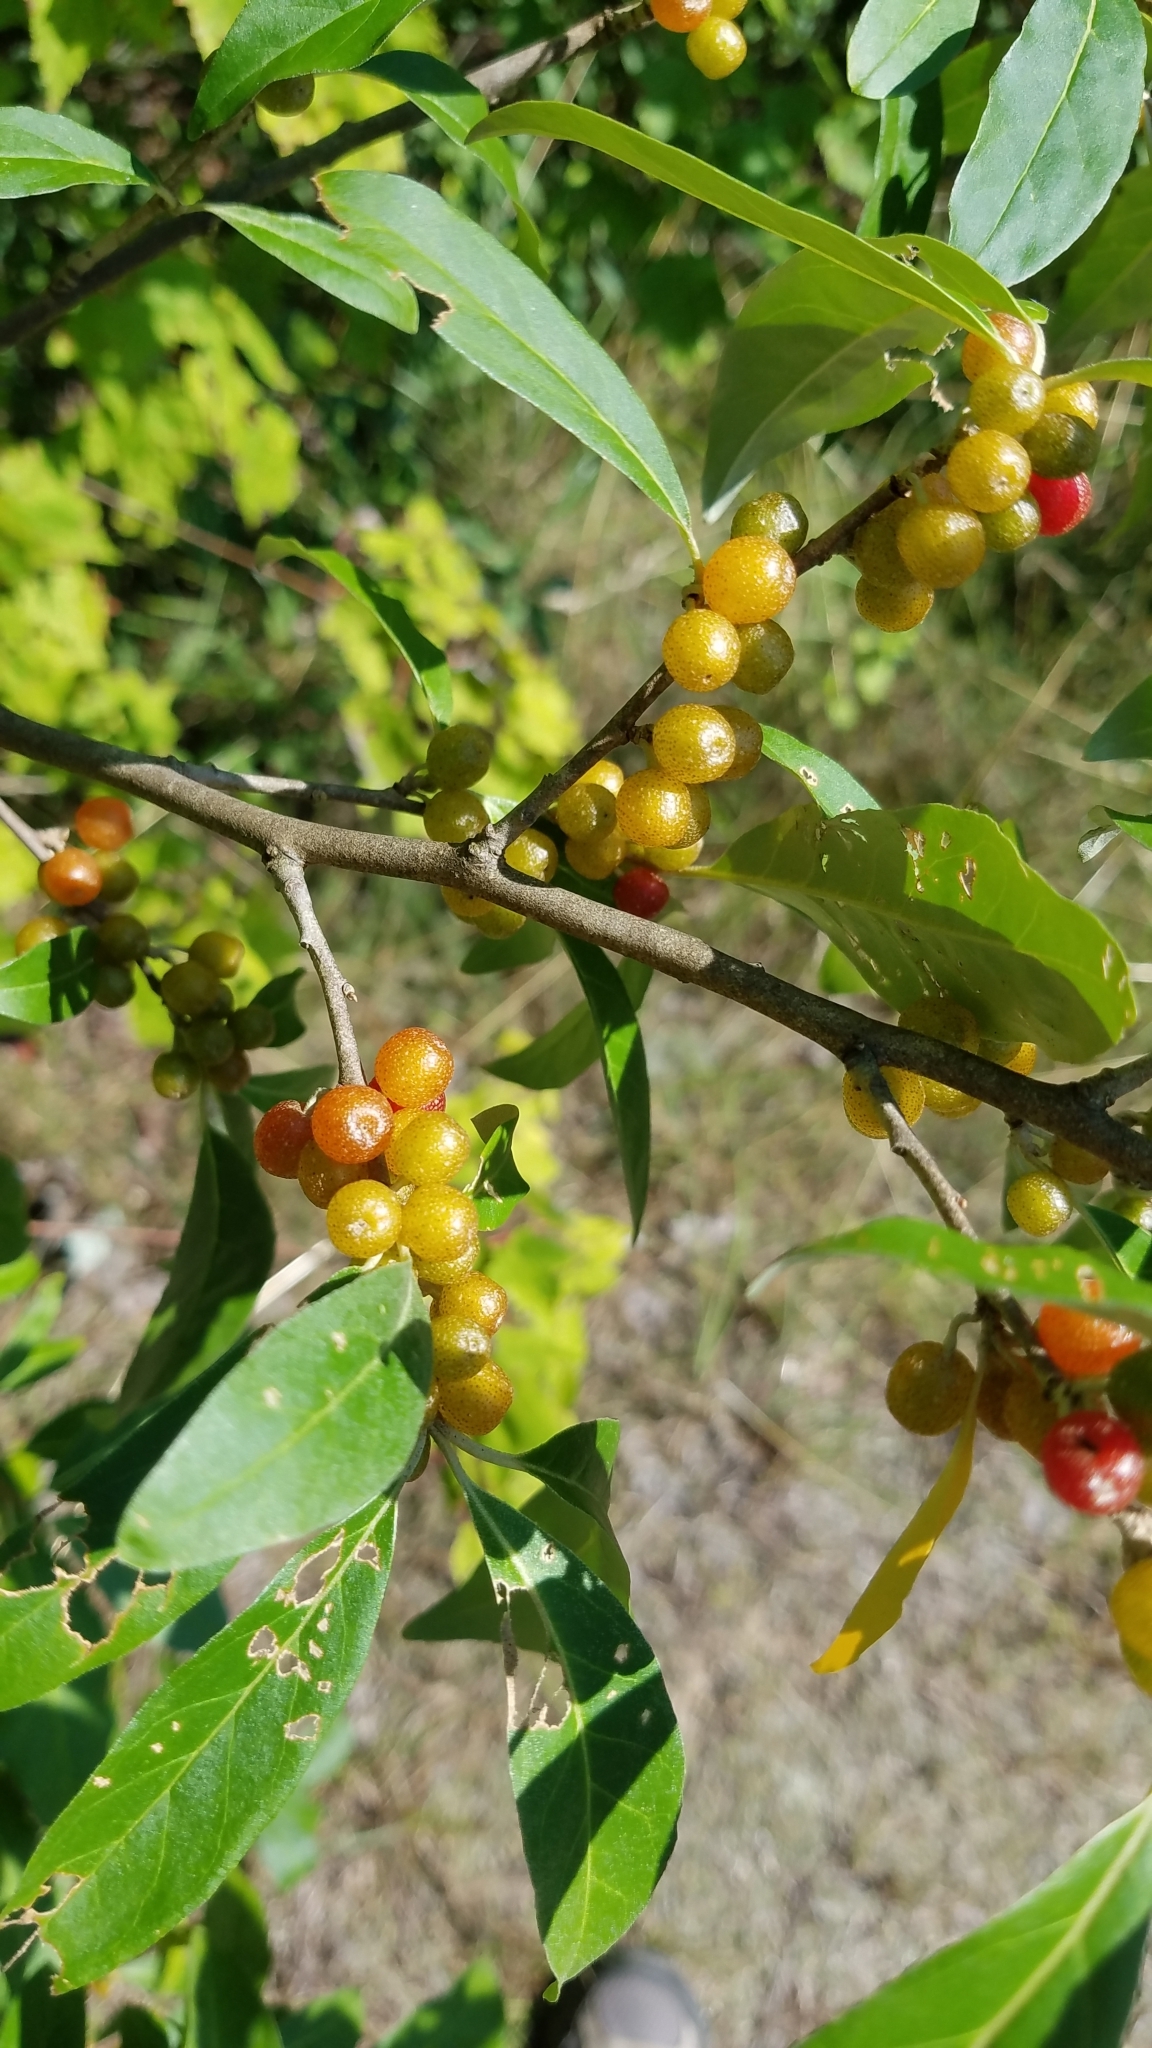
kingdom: Plantae
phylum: Tracheophyta
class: Magnoliopsida
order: Rosales
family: Elaeagnaceae
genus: Elaeagnus
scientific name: Elaeagnus umbellata
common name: Autumn olive
